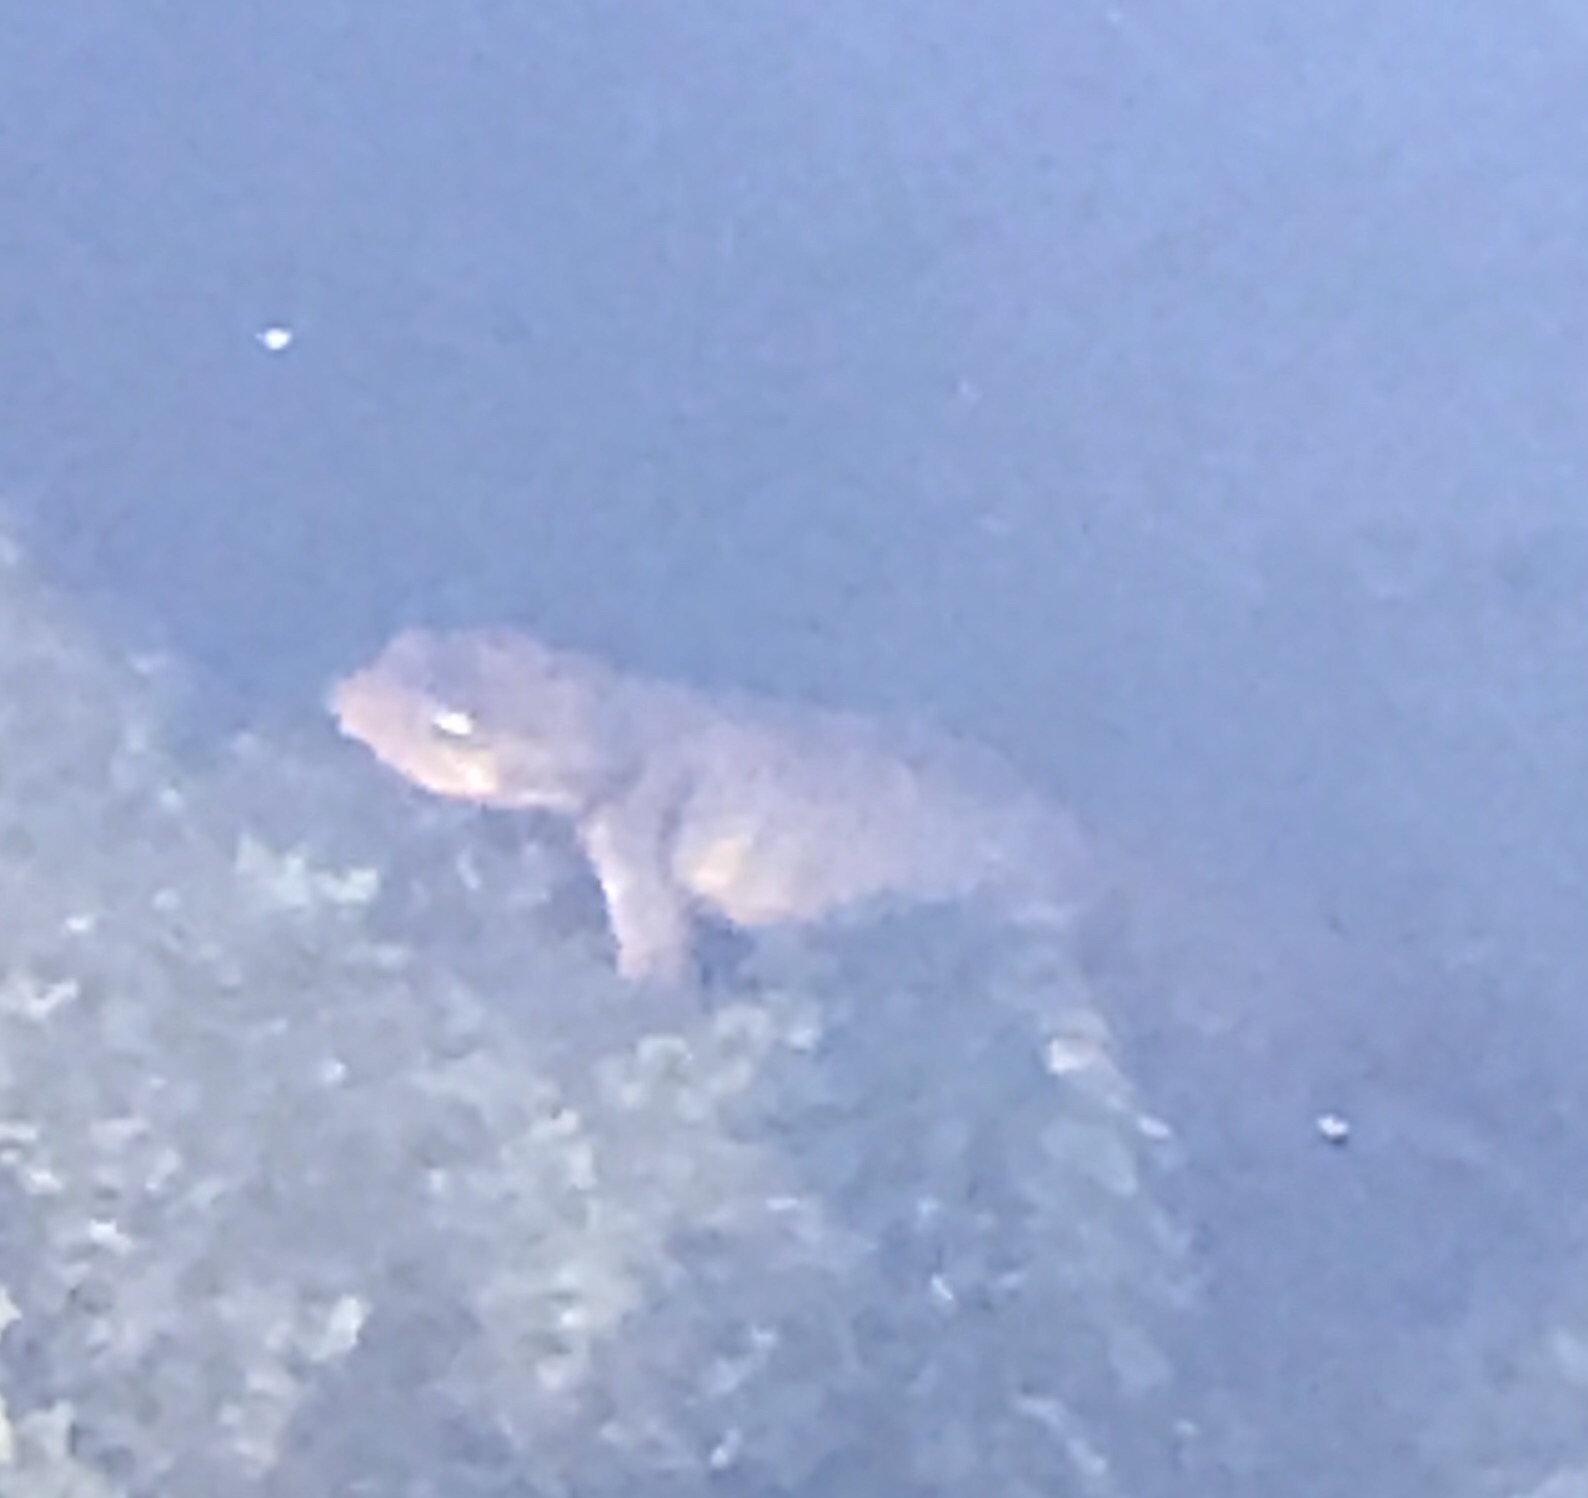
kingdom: Animalia
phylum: Chordata
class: Amphibia
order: Caudata
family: Salamandridae
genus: Taricha
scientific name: Taricha torosa
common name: California newt
